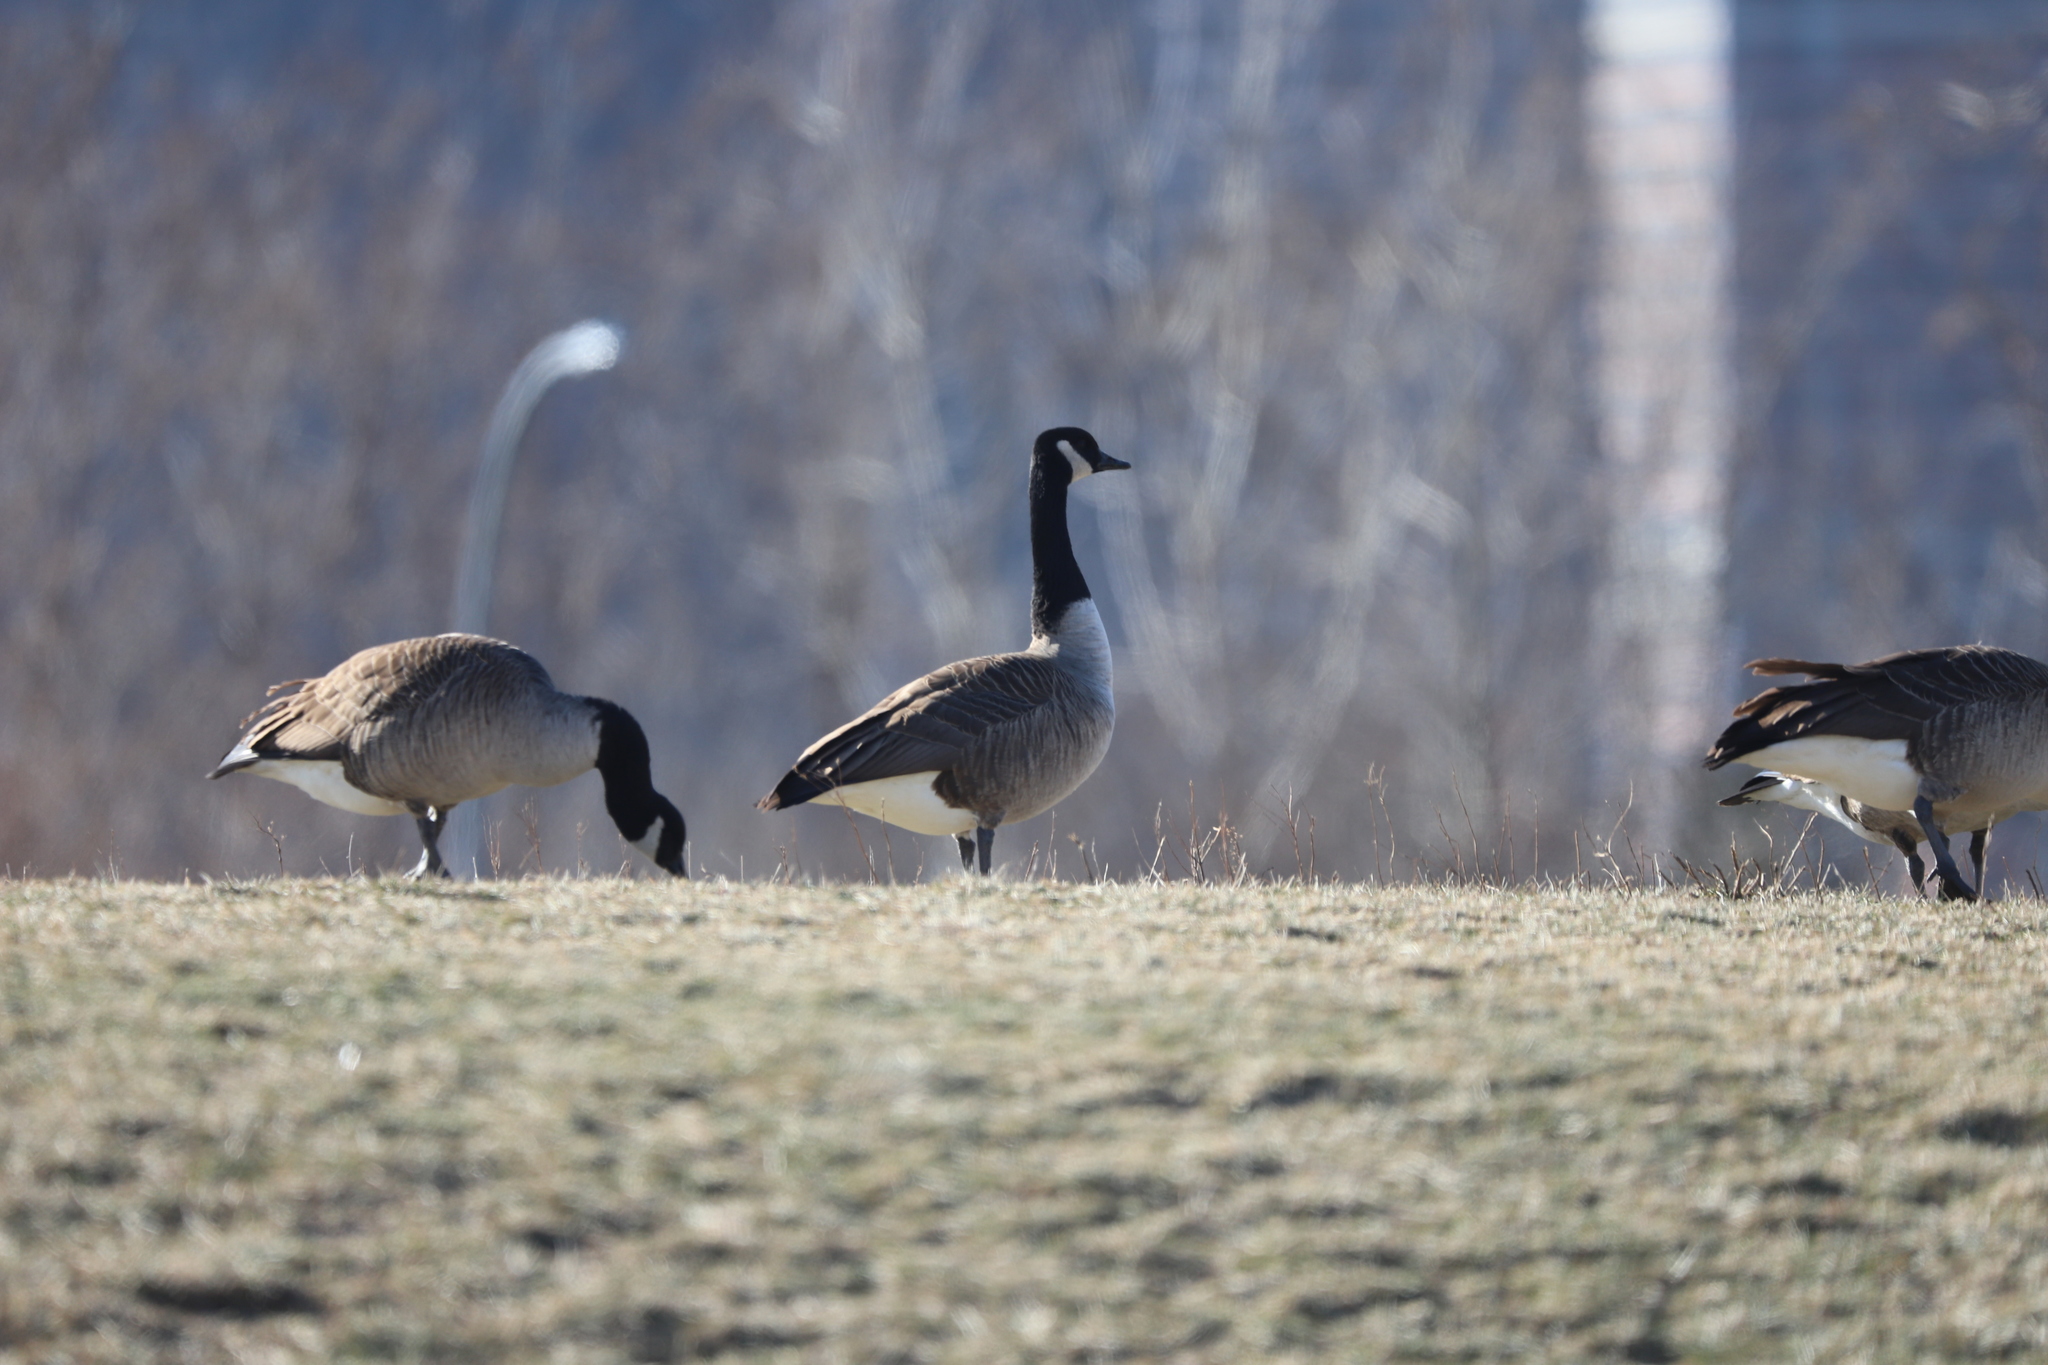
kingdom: Animalia
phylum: Chordata
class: Aves
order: Anseriformes
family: Anatidae
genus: Branta
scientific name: Branta canadensis
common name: Canada goose
